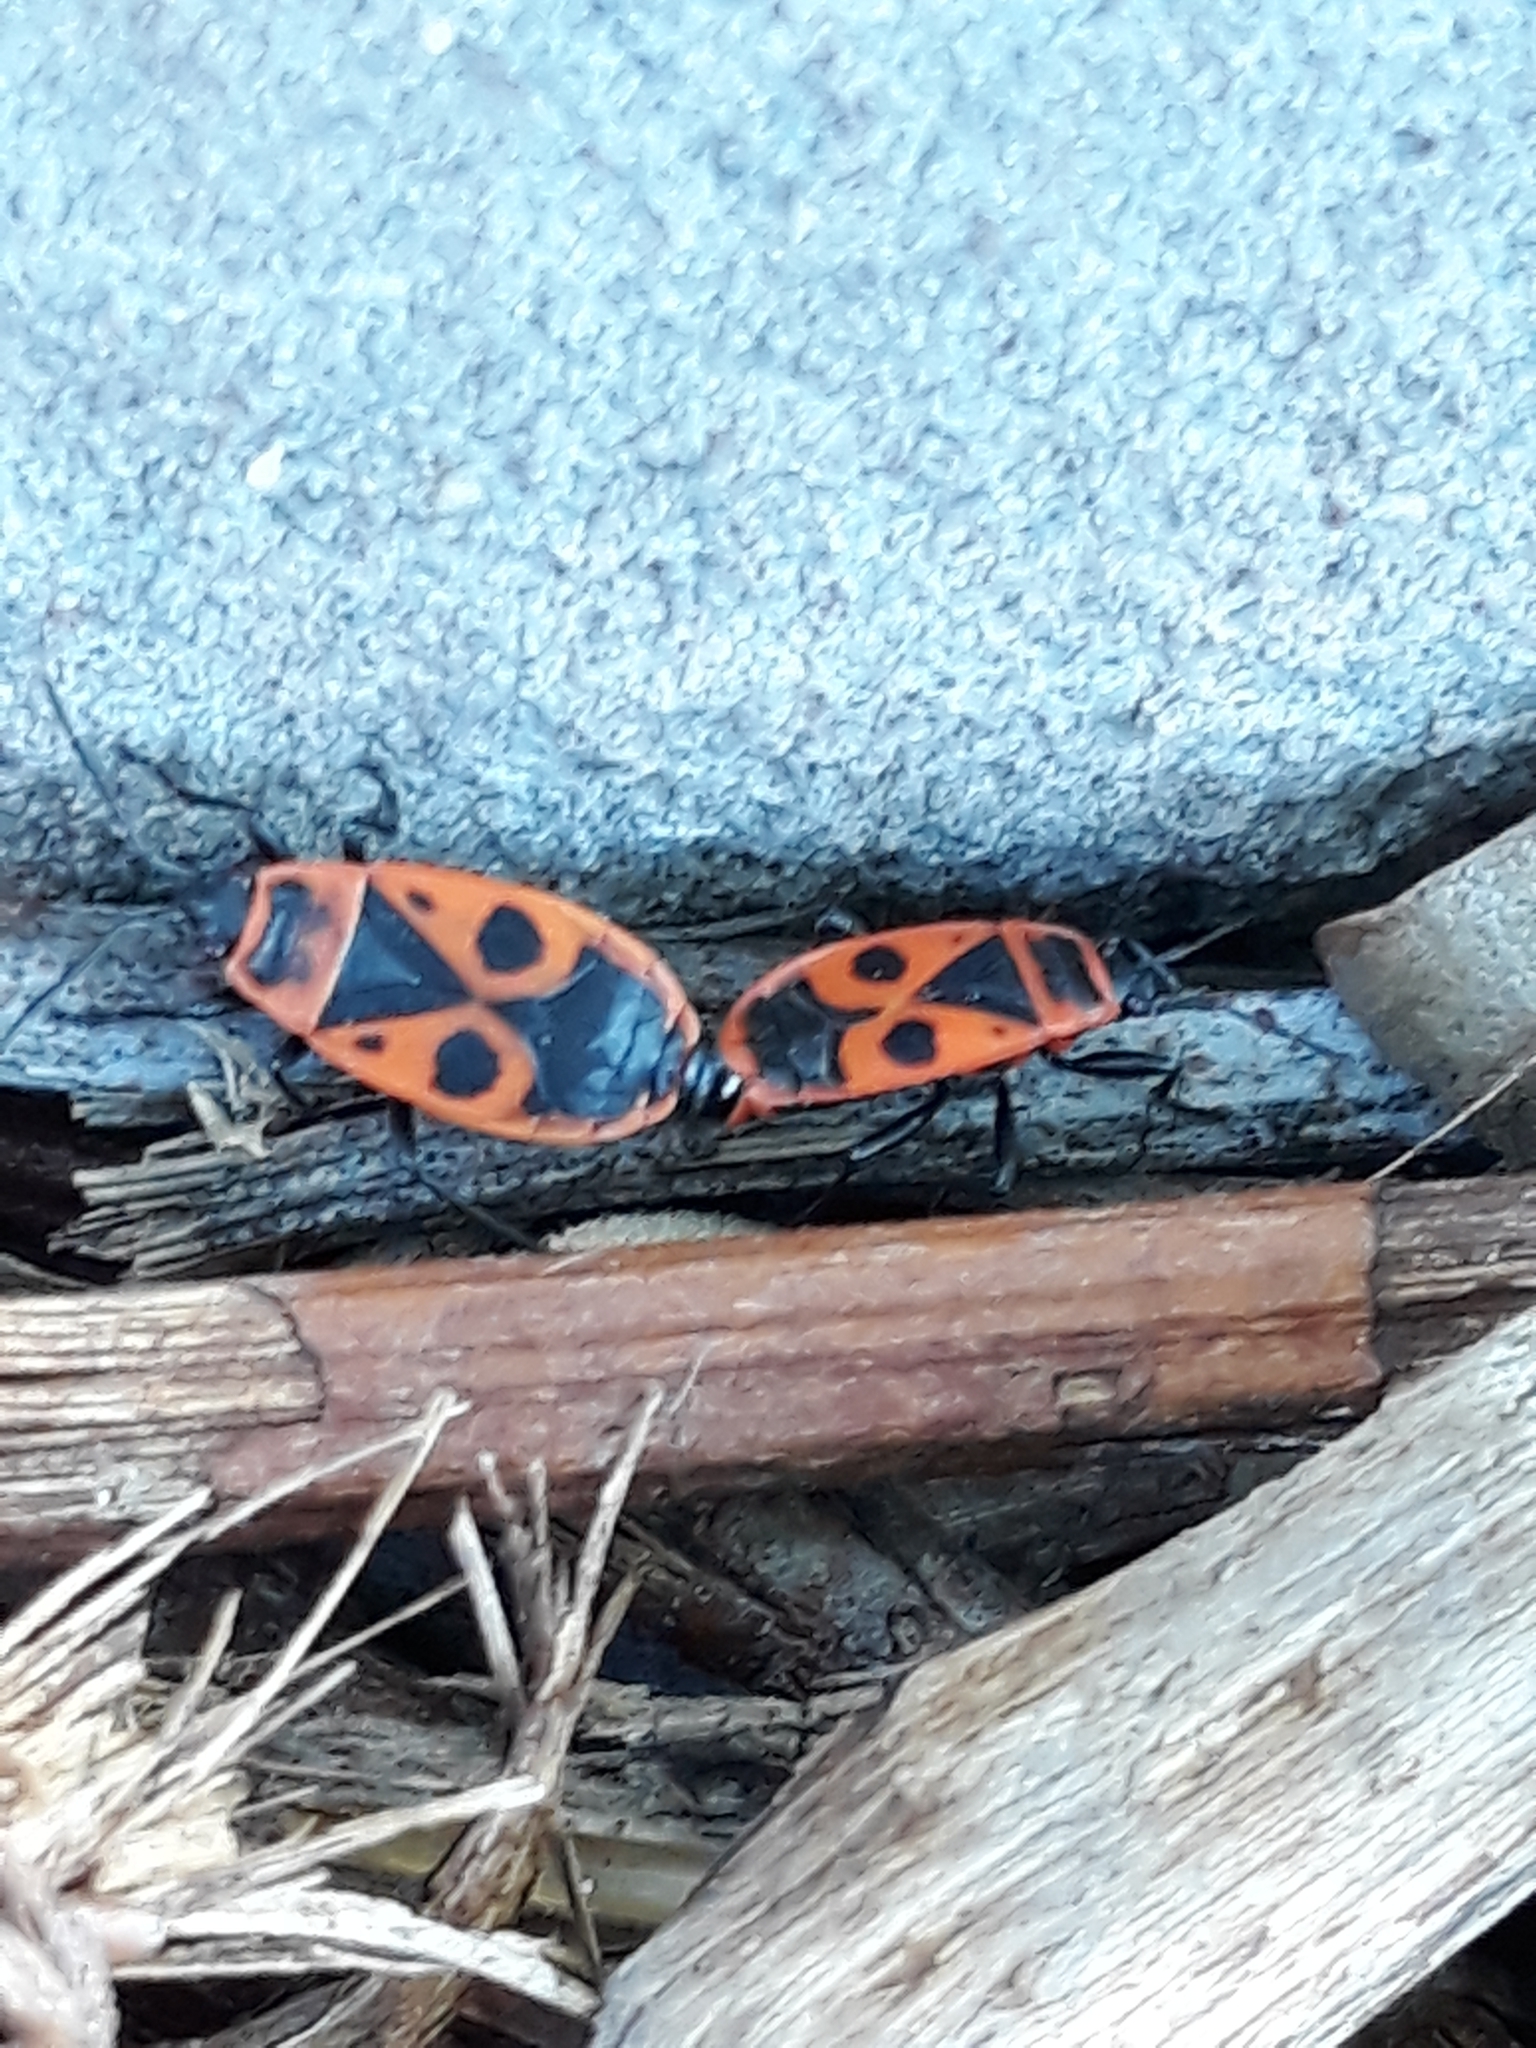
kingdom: Animalia
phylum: Arthropoda
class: Insecta
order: Hemiptera
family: Pyrrhocoridae
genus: Pyrrhocoris
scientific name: Pyrrhocoris apterus
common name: Firebug
